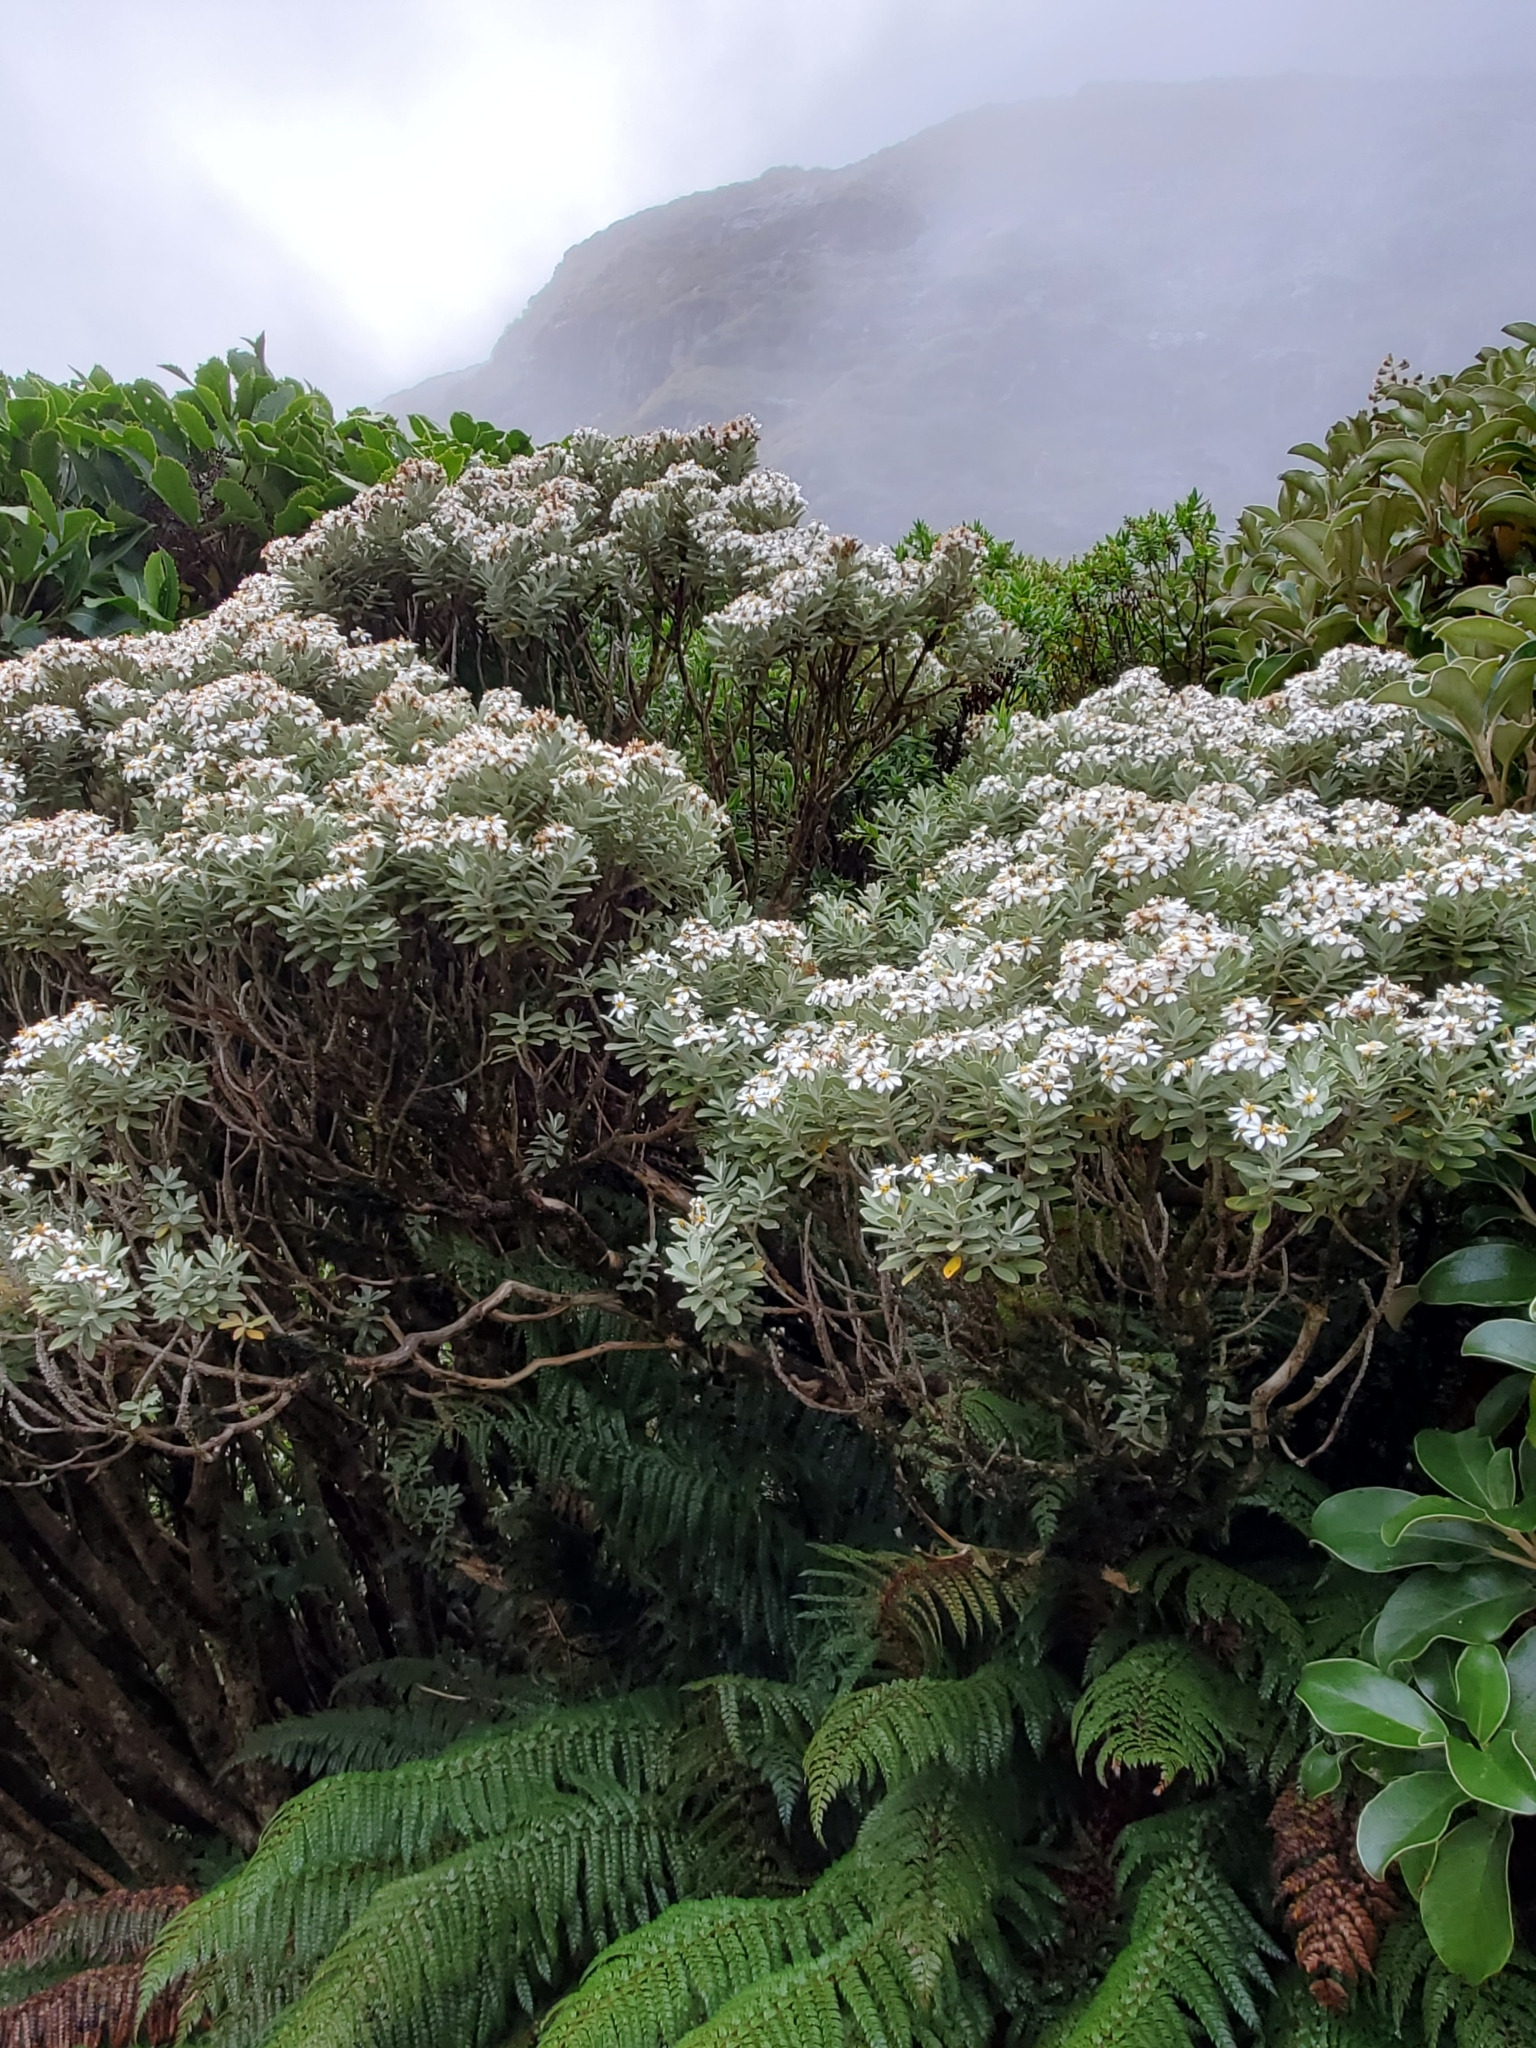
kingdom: Plantae
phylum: Tracheophyta
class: Magnoliopsida
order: Asterales
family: Asteraceae
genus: Olearia
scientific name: Olearia moschata
